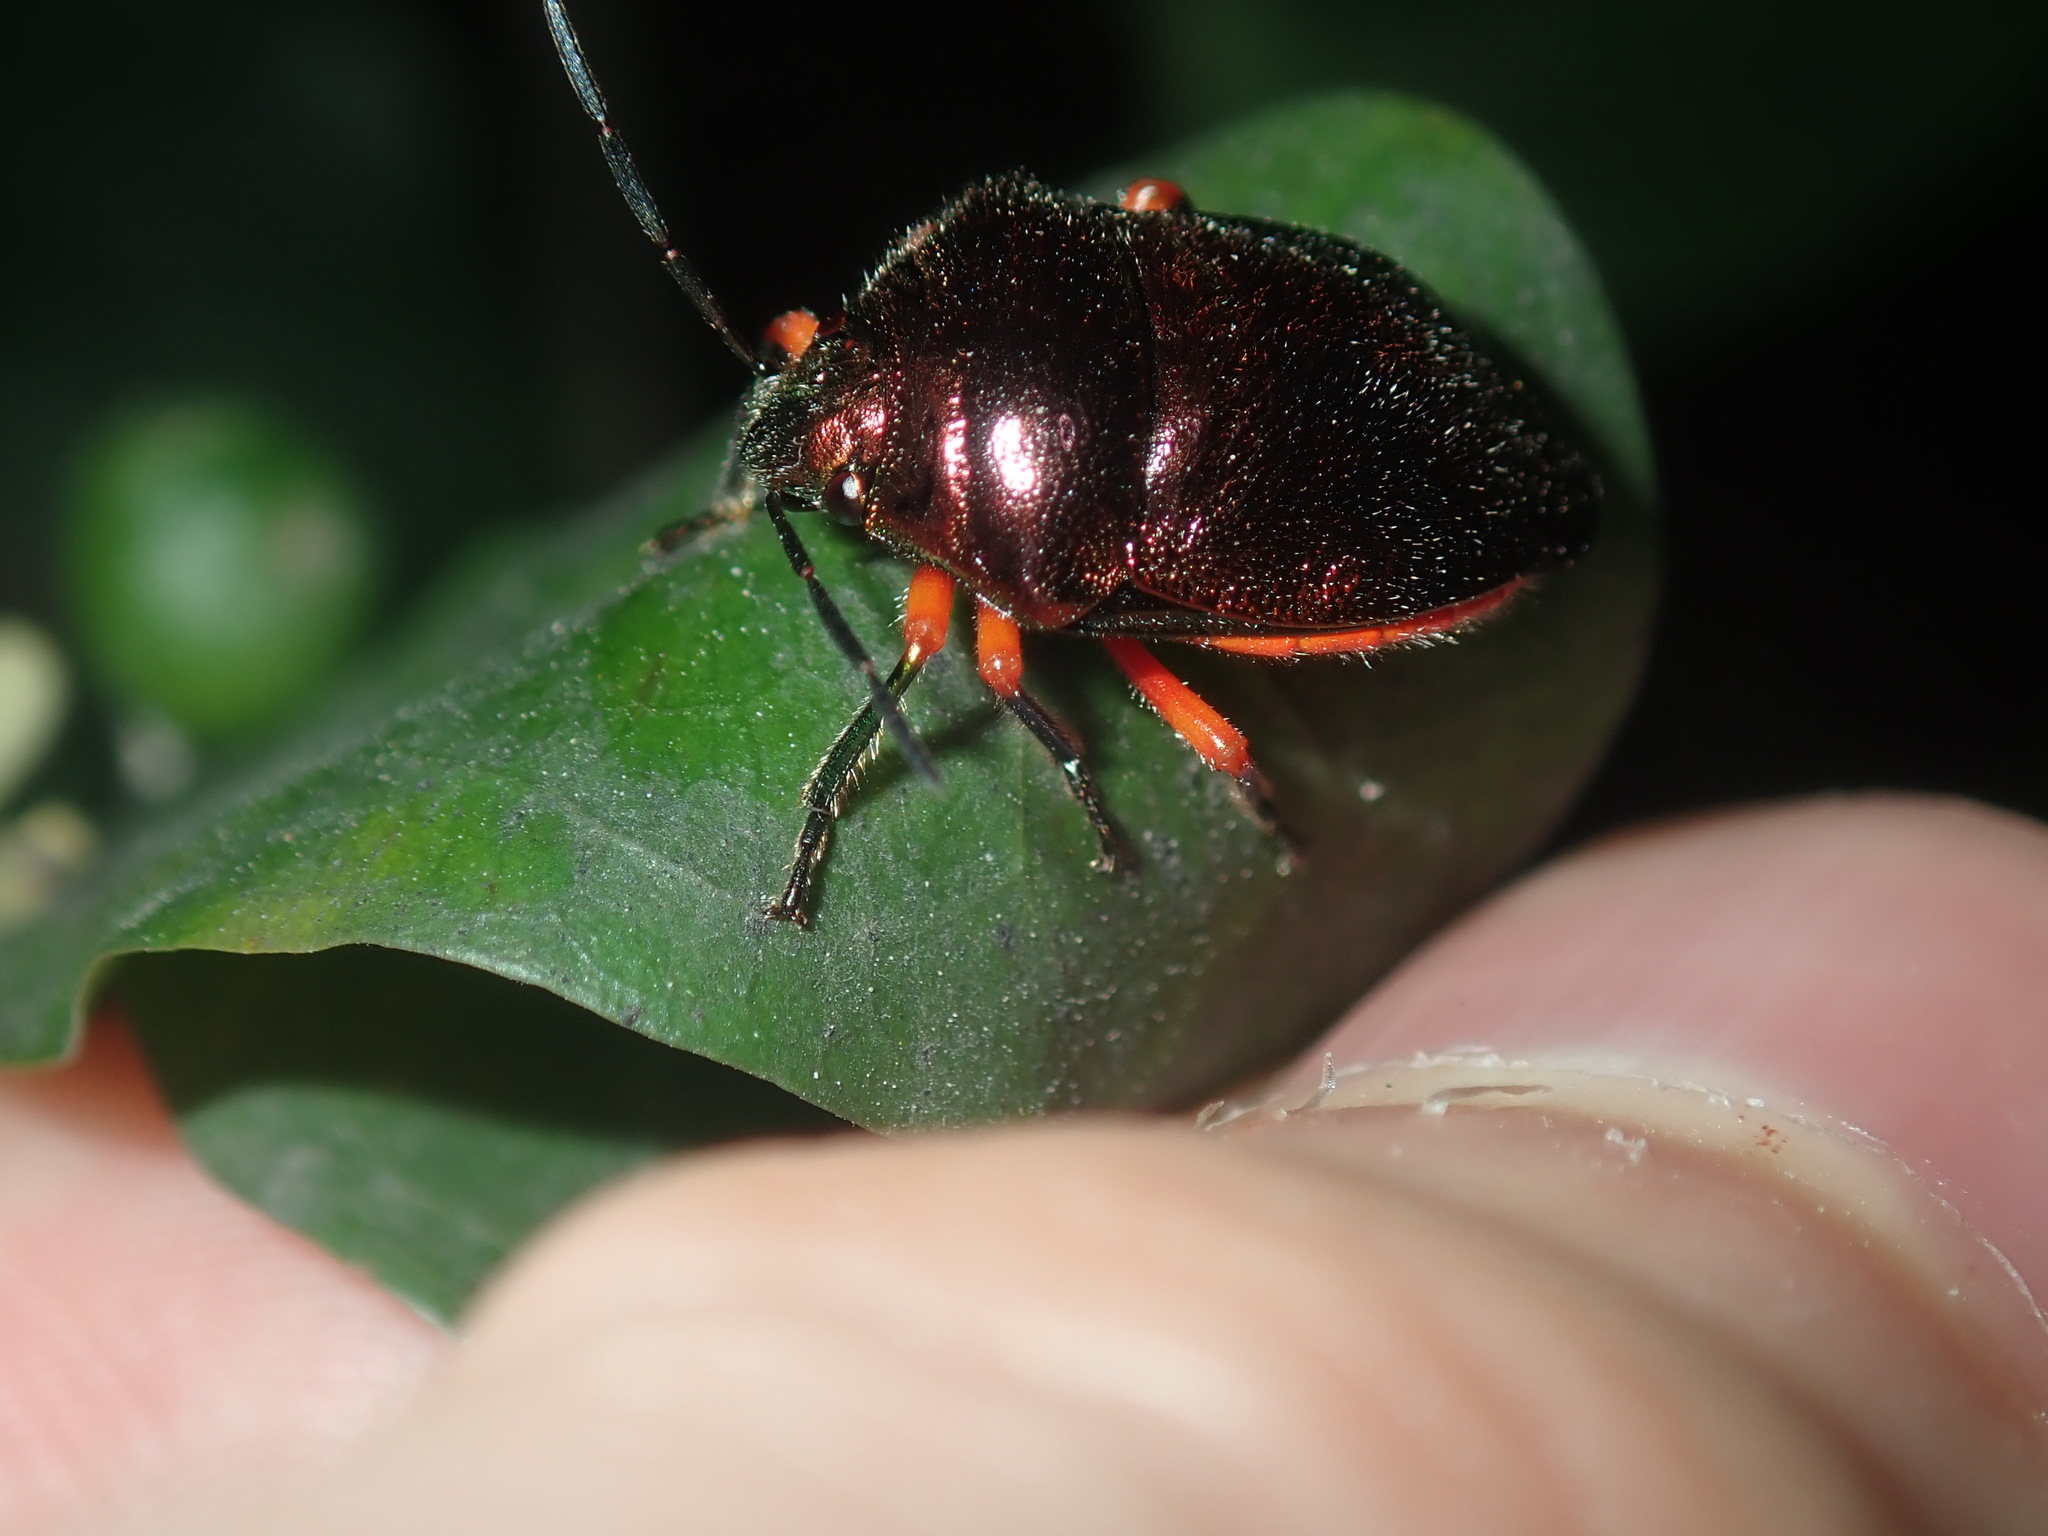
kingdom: Animalia
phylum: Arthropoda
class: Insecta
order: Hemiptera
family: Scutelleridae
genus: Lampromicra
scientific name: Lampromicra
